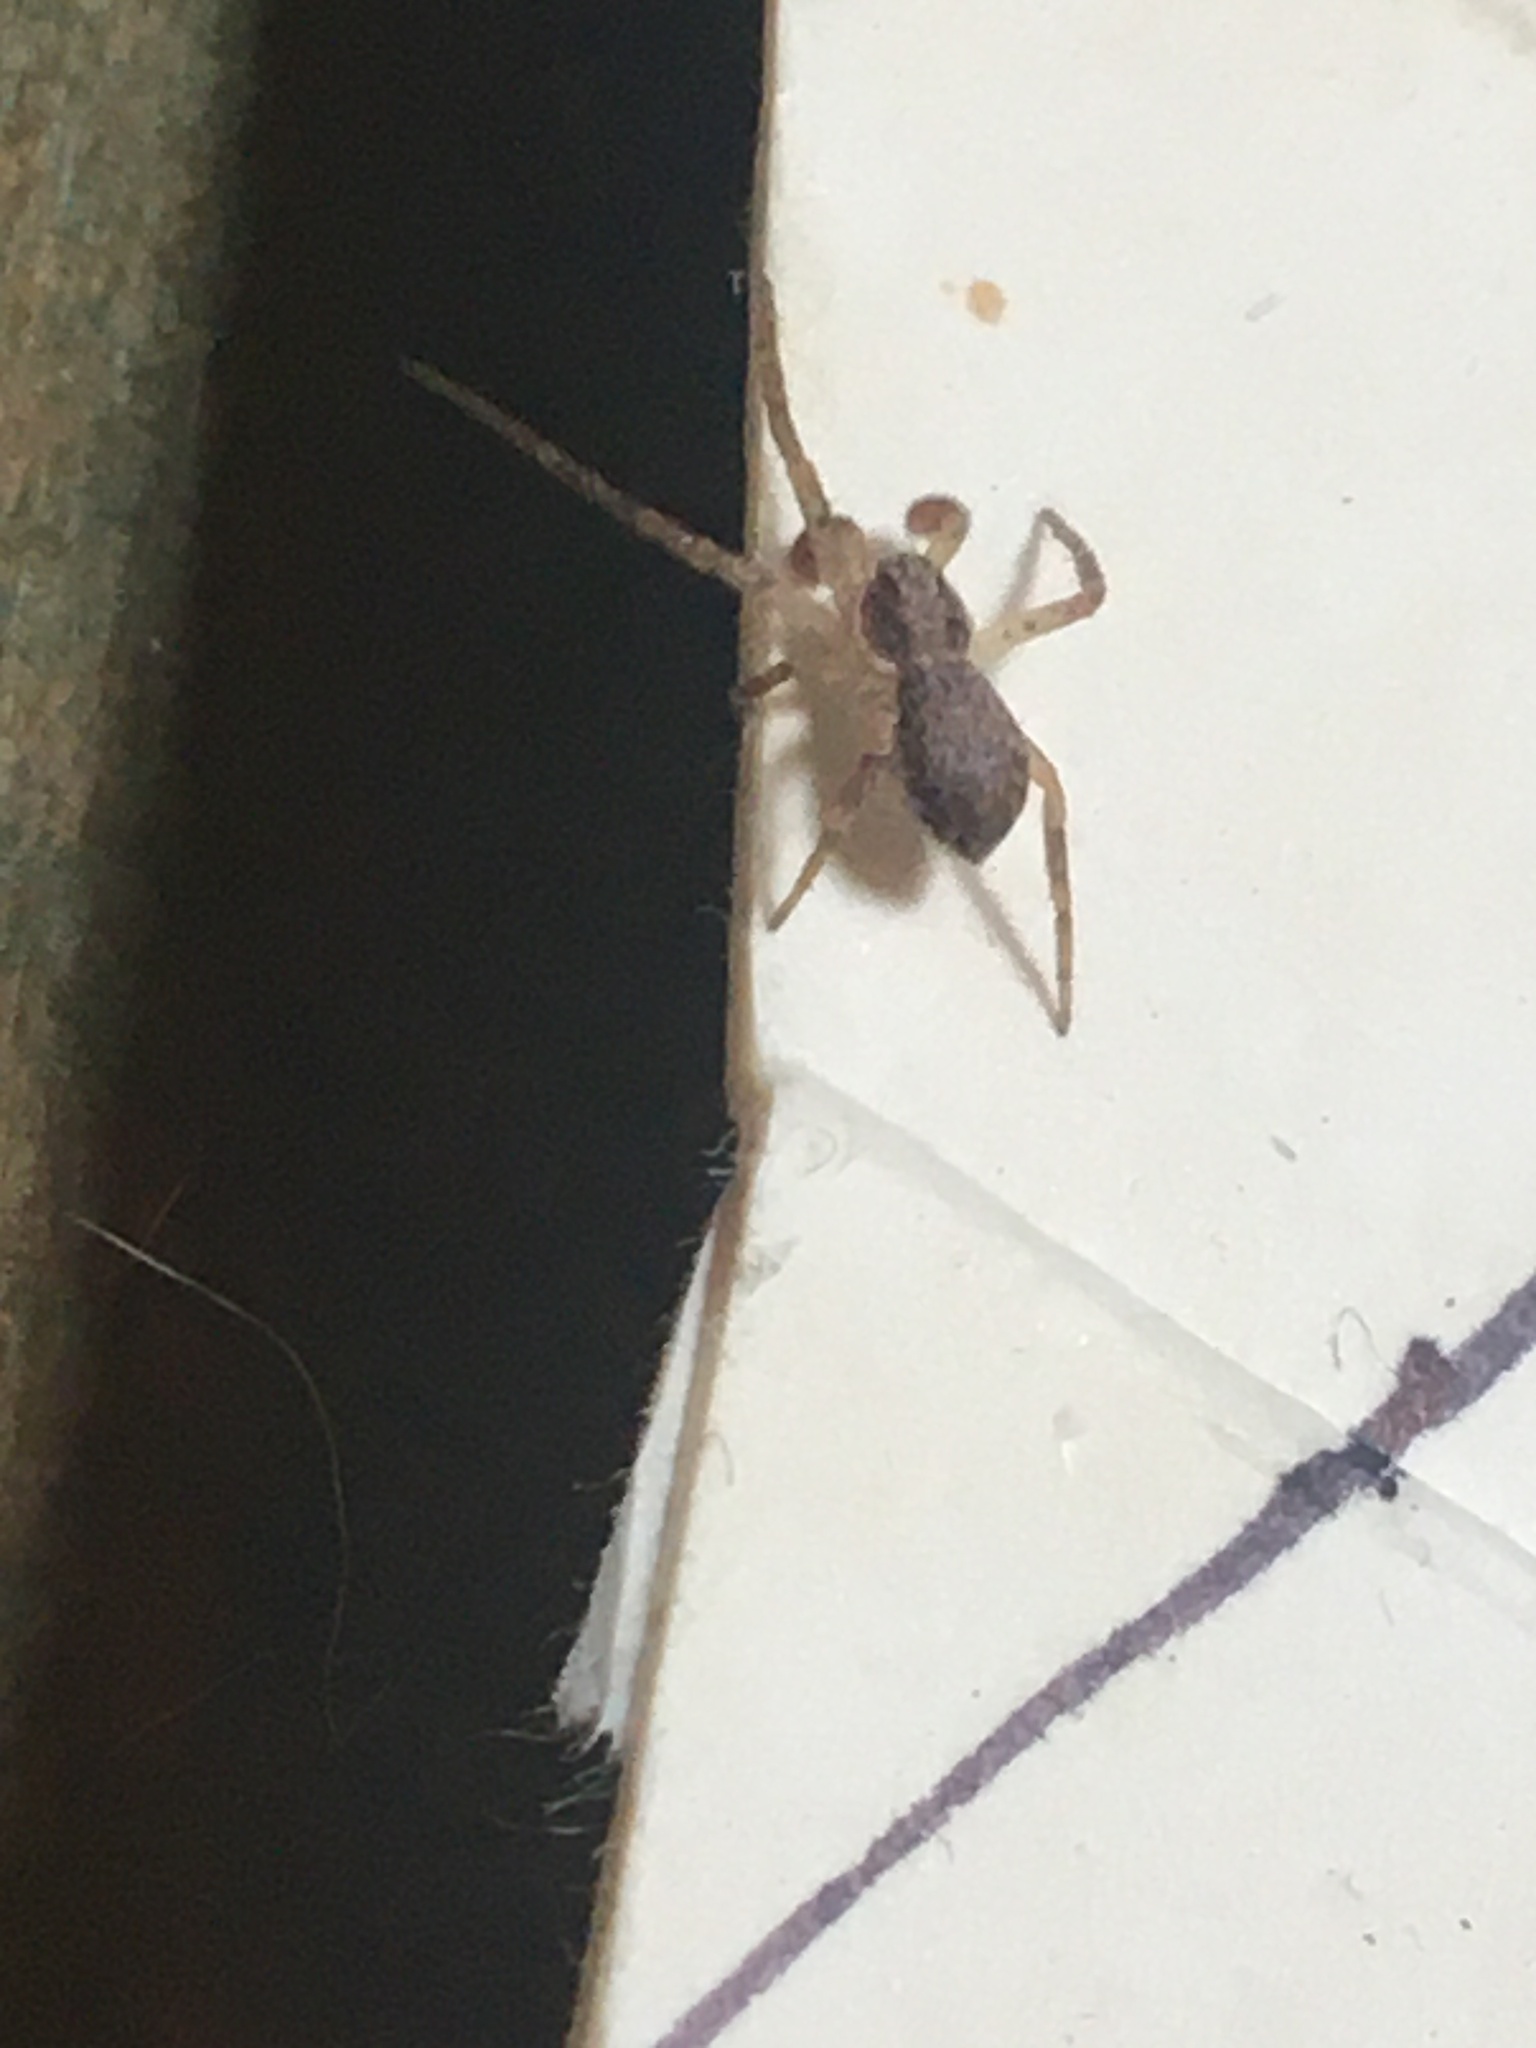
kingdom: Animalia
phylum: Arthropoda
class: Arachnida
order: Araneae
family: Philodromidae
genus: Philodromus
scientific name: Philodromus dispar
